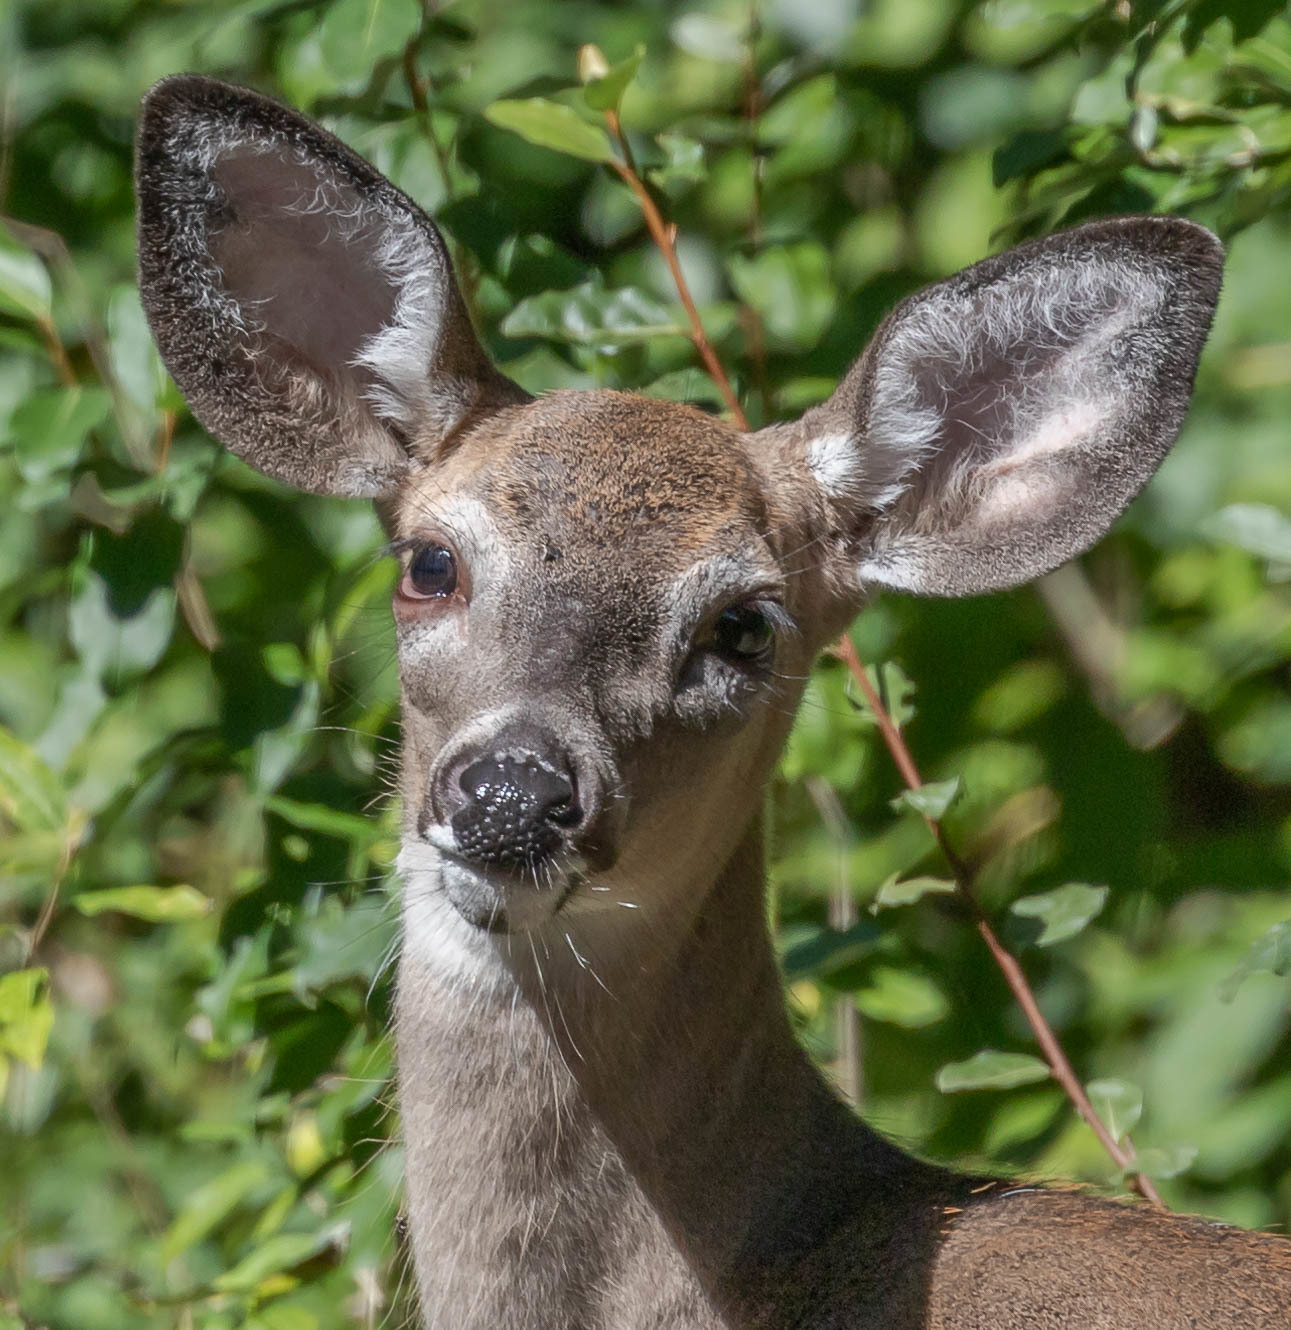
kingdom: Animalia
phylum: Chordata
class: Mammalia
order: Artiodactyla
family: Cervidae
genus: Odocoileus
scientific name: Odocoileus virginianus
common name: White-tailed deer
